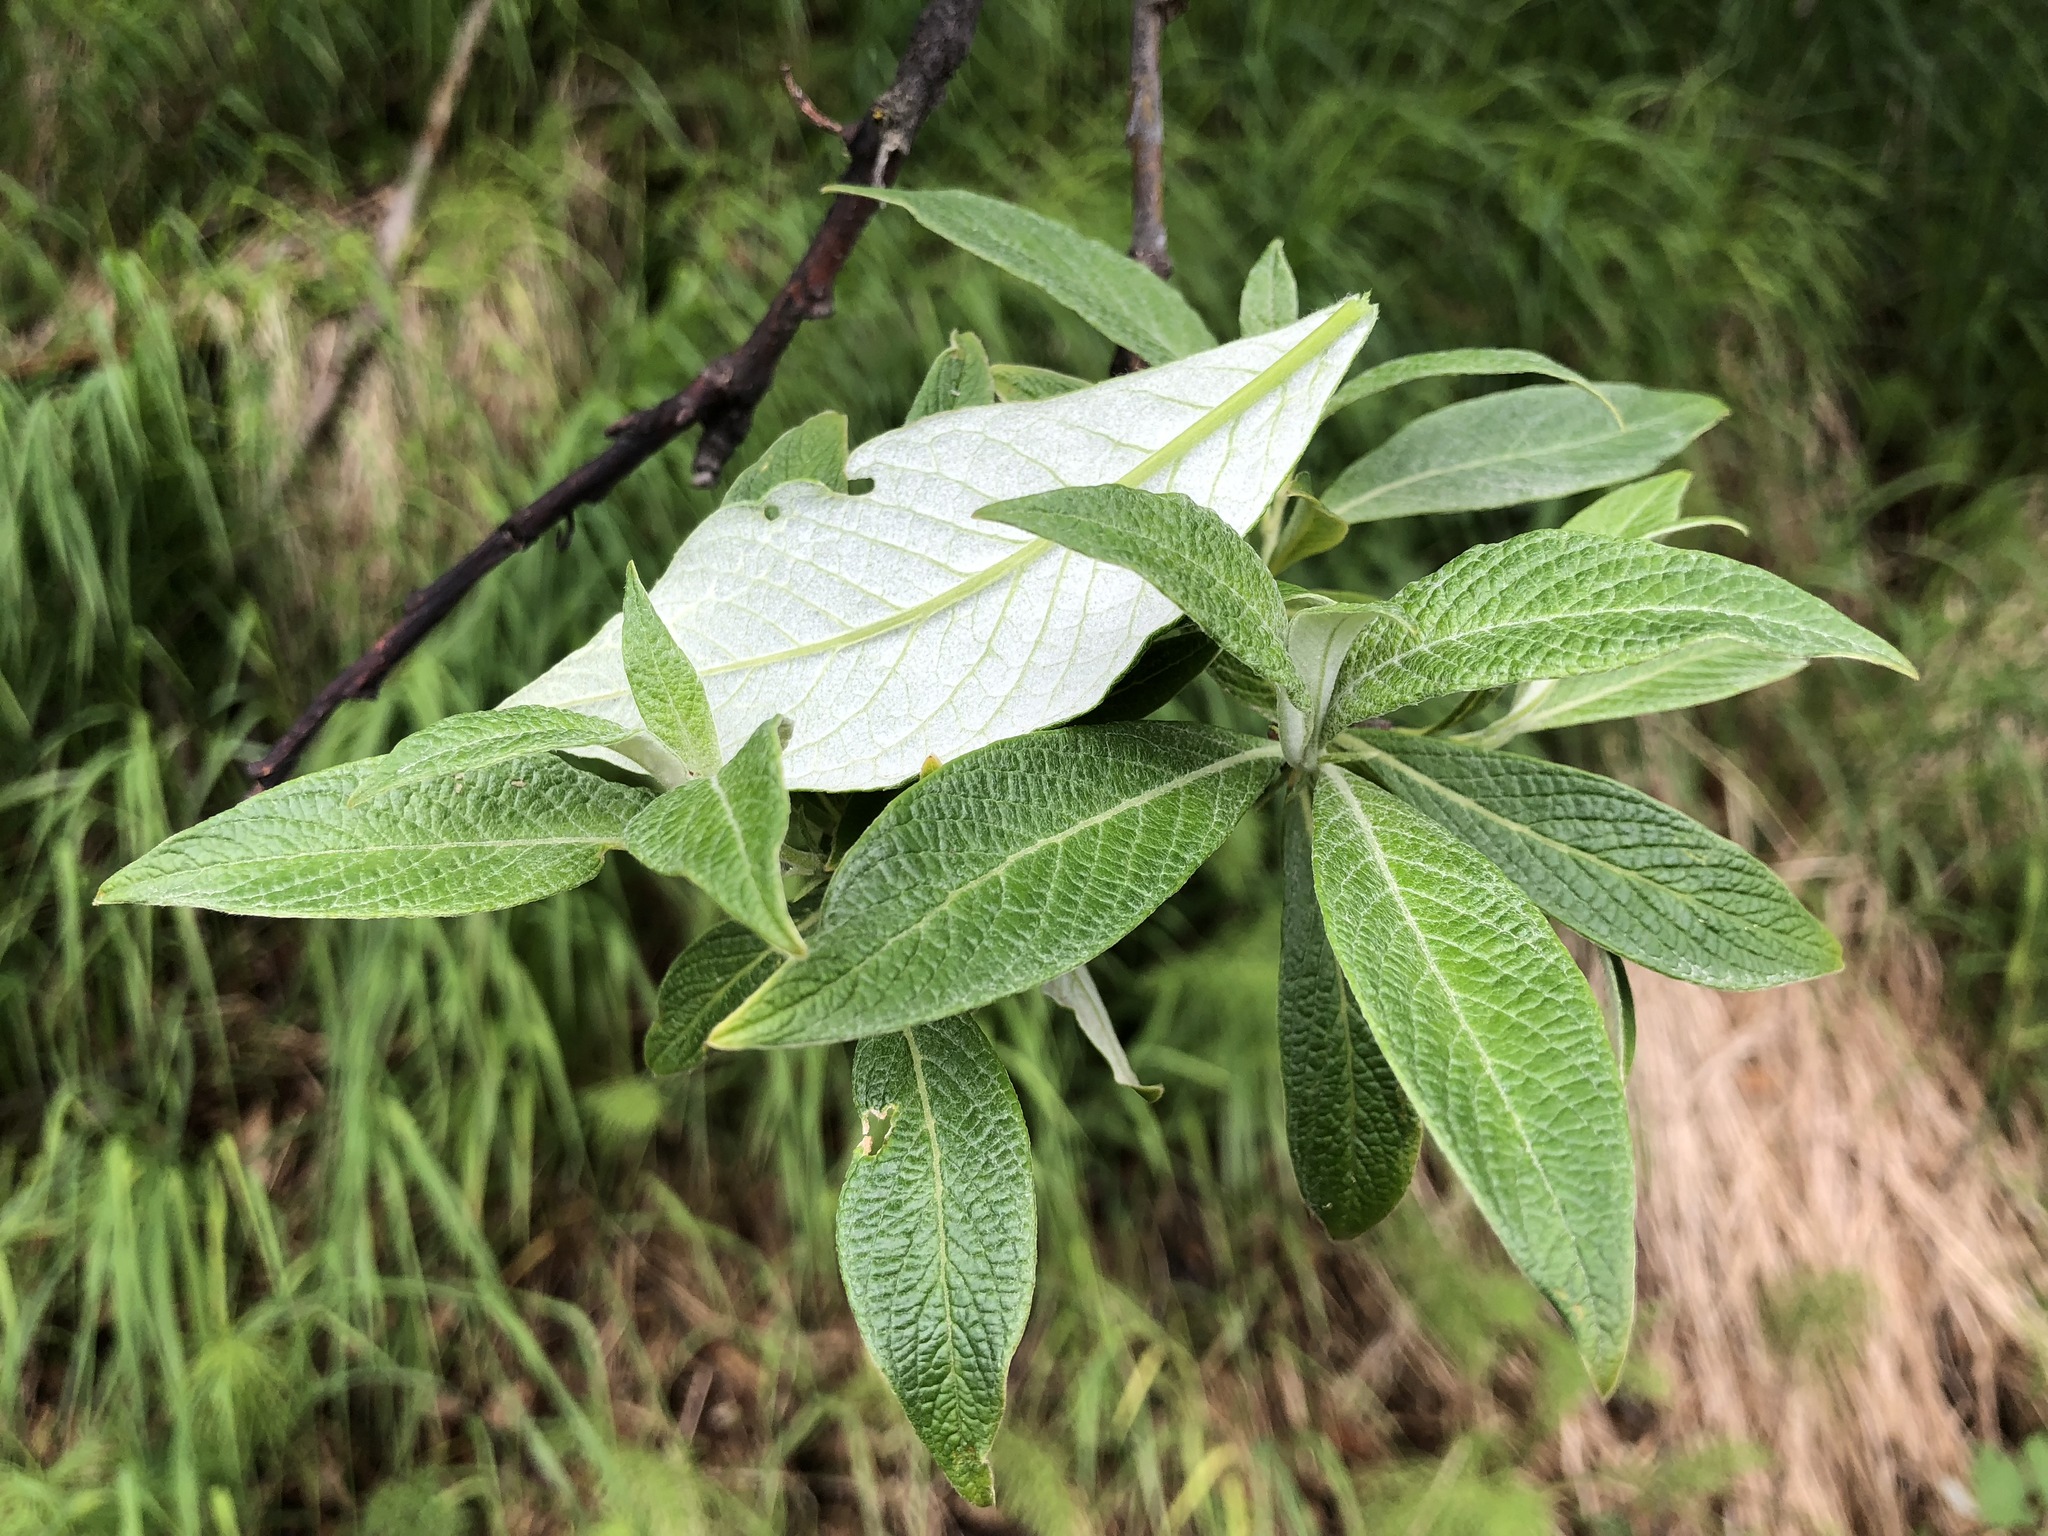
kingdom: Plantae
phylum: Tracheophyta
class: Magnoliopsida
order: Malpighiales
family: Salicaceae
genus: Salix
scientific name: Salix alaxensis
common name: Feltleaf willow
